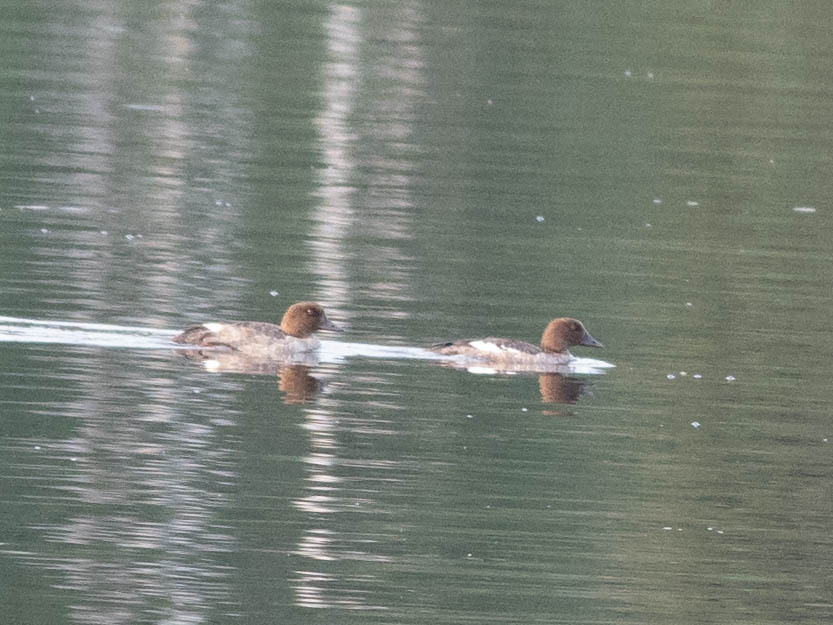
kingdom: Animalia
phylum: Chordata
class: Aves
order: Anseriformes
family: Anatidae
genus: Bucephala
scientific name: Bucephala clangula
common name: Common goldeneye
